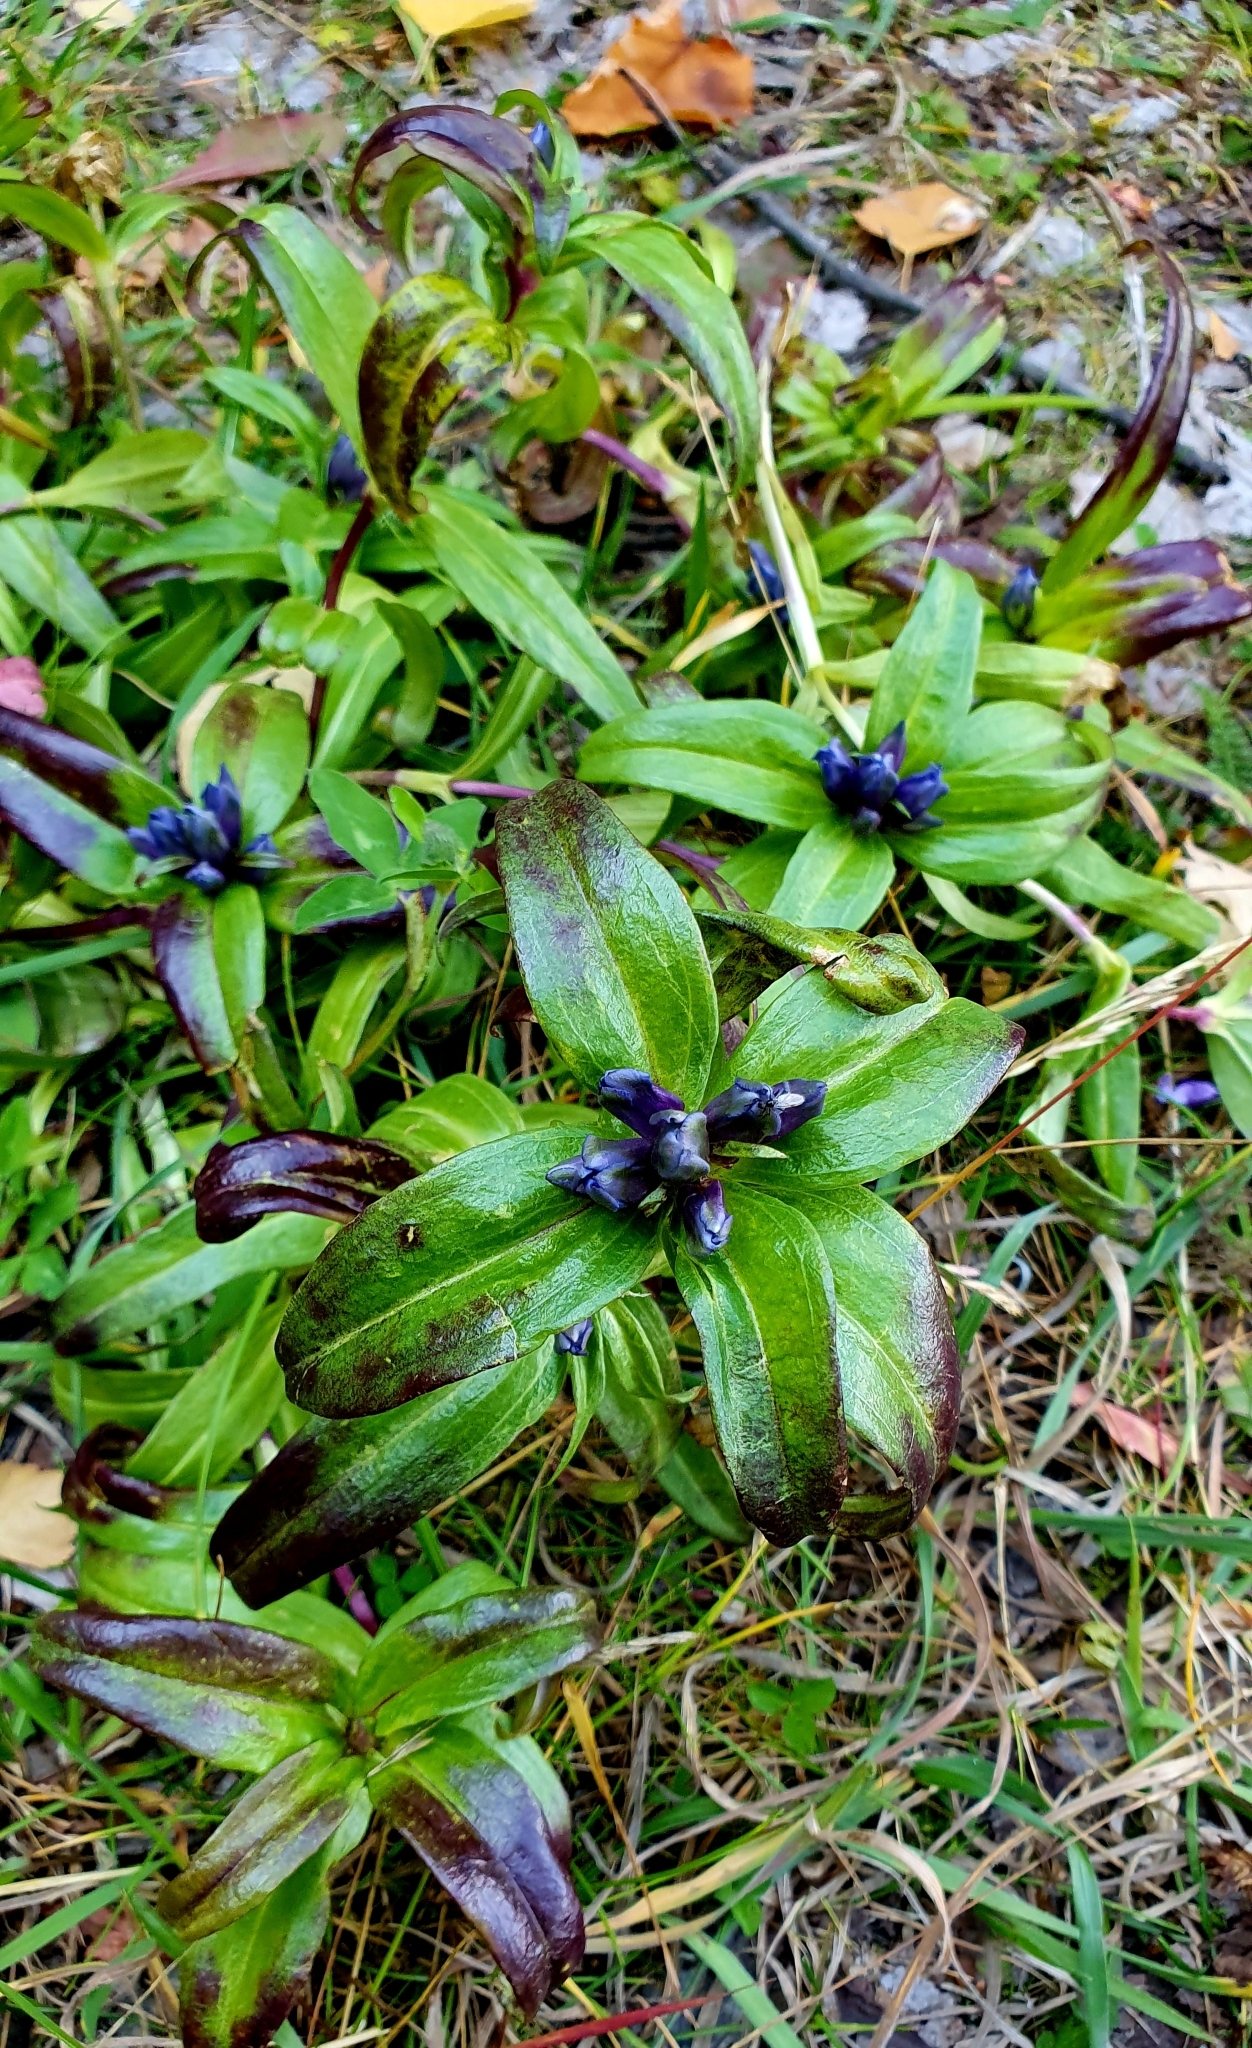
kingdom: Plantae
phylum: Tracheophyta
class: Magnoliopsida
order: Gentianales
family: Gentianaceae
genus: Gentiana
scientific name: Gentiana cruciata
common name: Cross gentian
